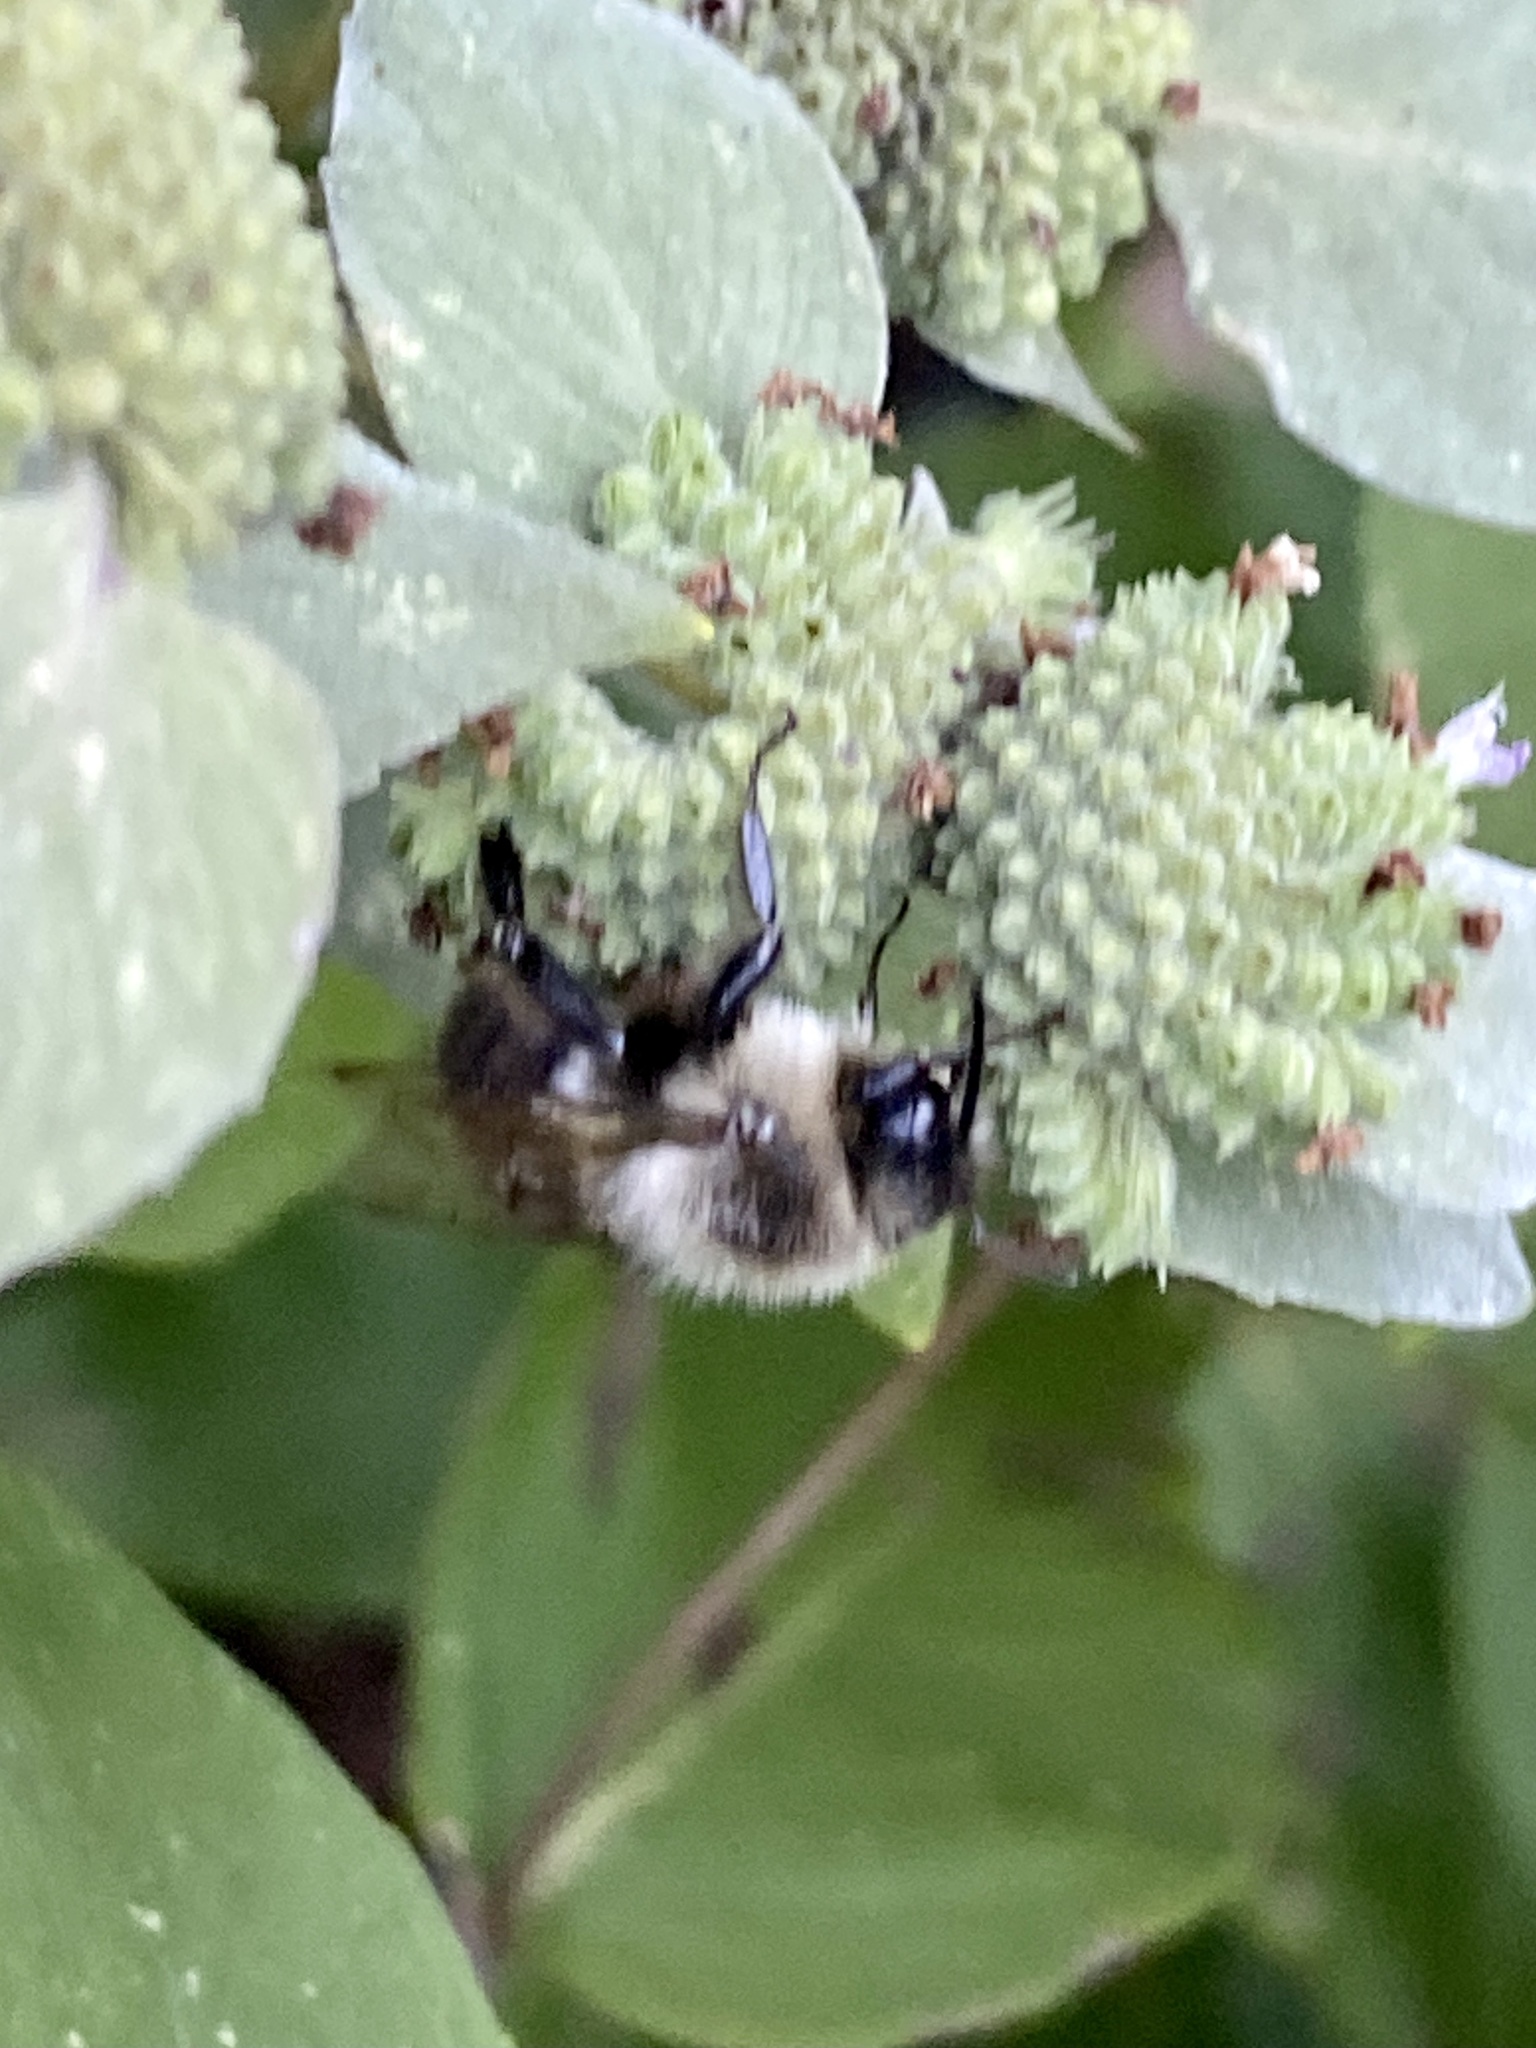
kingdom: Animalia
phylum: Arthropoda
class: Insecta
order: Hymenoptera
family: Apidae
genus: Bombus
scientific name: Bombus impatiens
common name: Common eastern bumble bee
